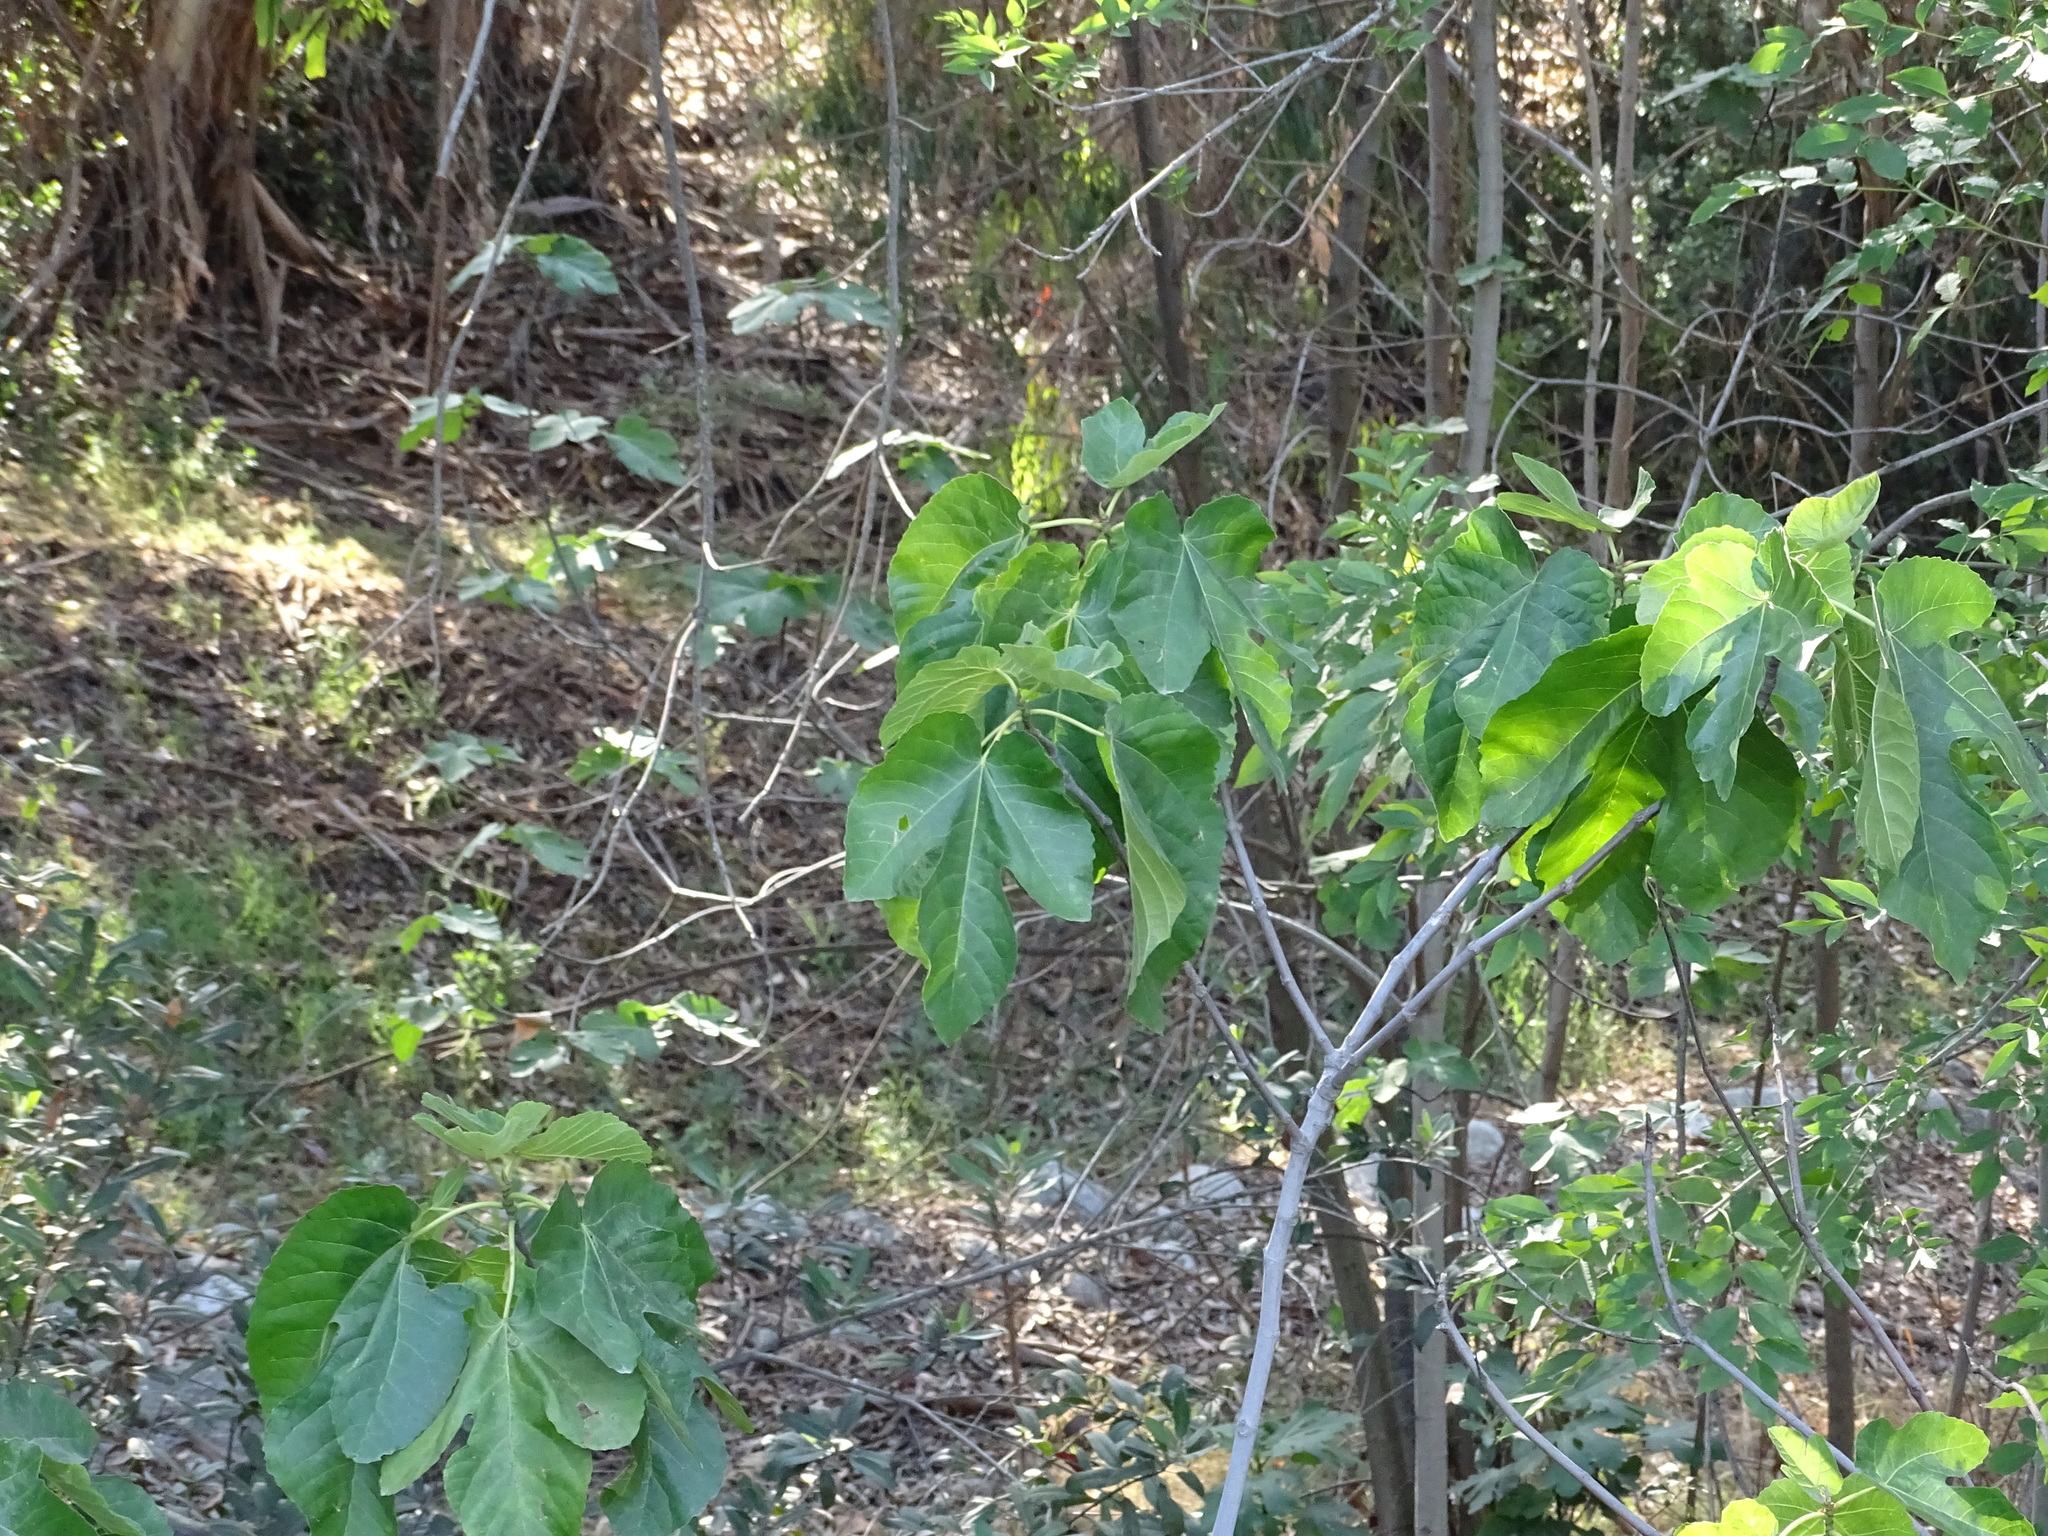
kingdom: Plantae
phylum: Tracheophyta
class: Magnoliopsida
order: Rosales
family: Moraceae
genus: Ficus
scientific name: Ficus carica
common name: Fig
